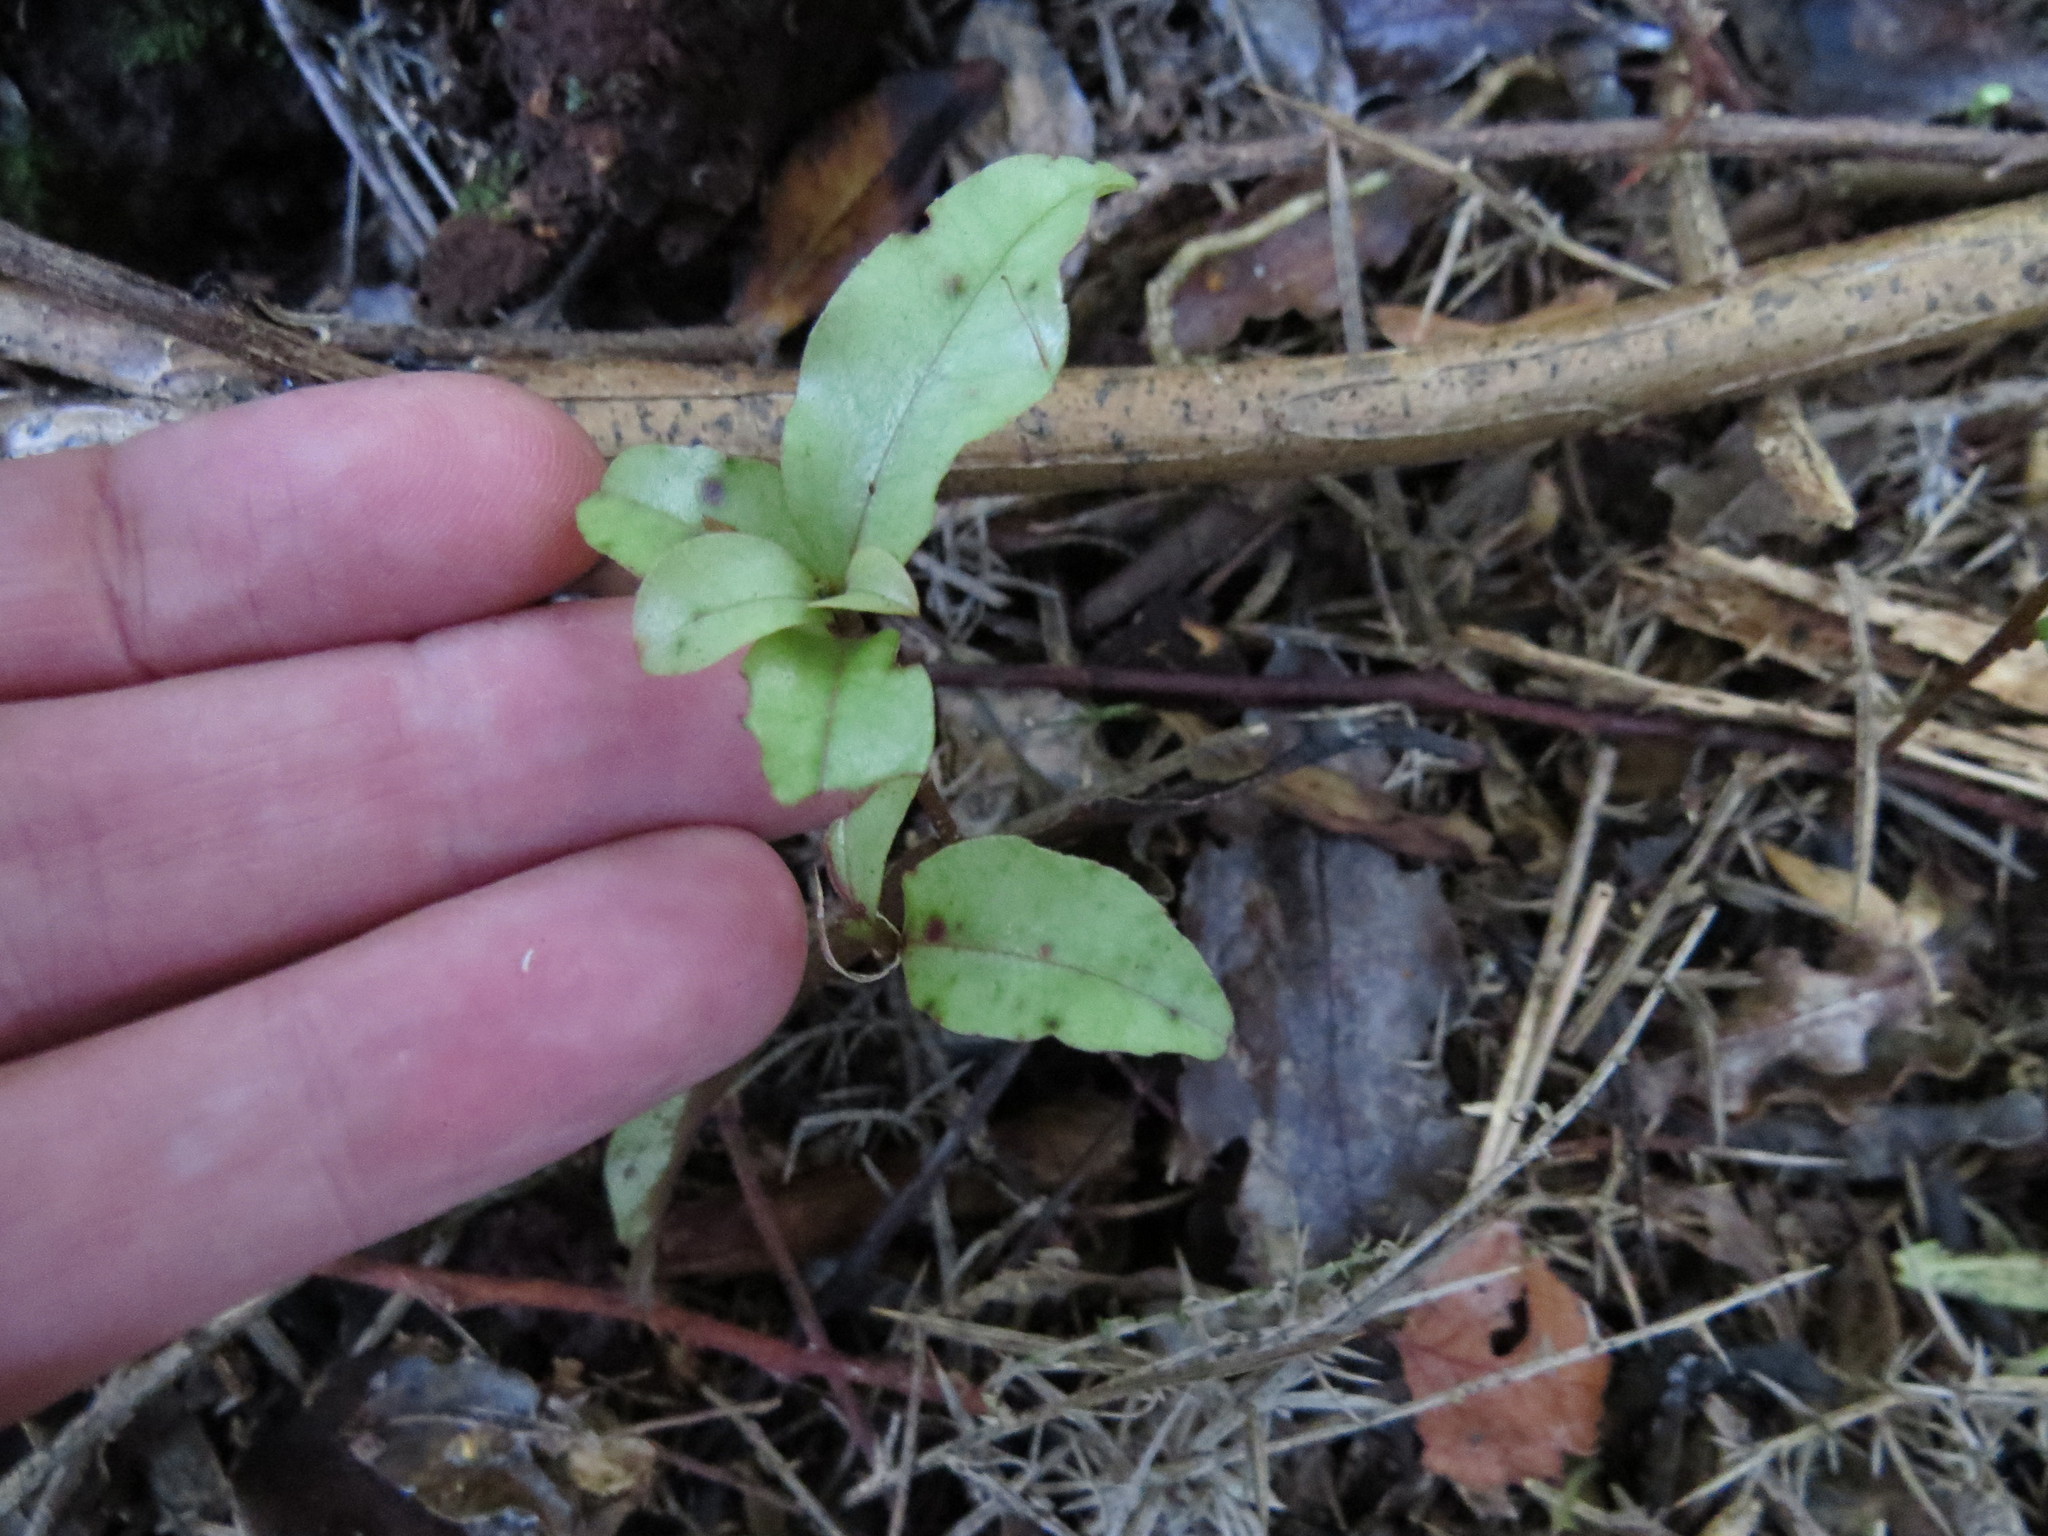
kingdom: Plantae
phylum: Tracheophyta
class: Magnoliopsida
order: Ericales
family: Primulaceae
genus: Myrsine
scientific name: Myrsine australis
